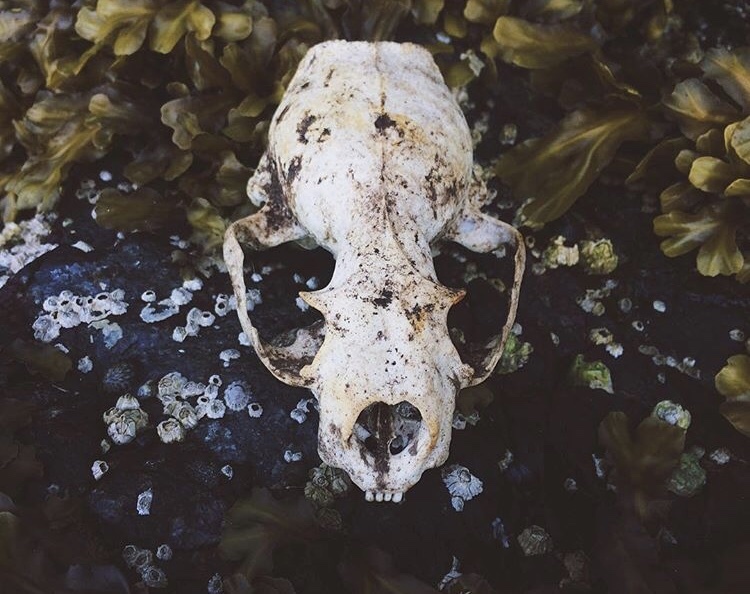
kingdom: Animalia
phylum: Chordata
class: Mammalia
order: Carnivora
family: Mustelidae
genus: Lontra
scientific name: Lontra canadensis
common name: North american river otter
